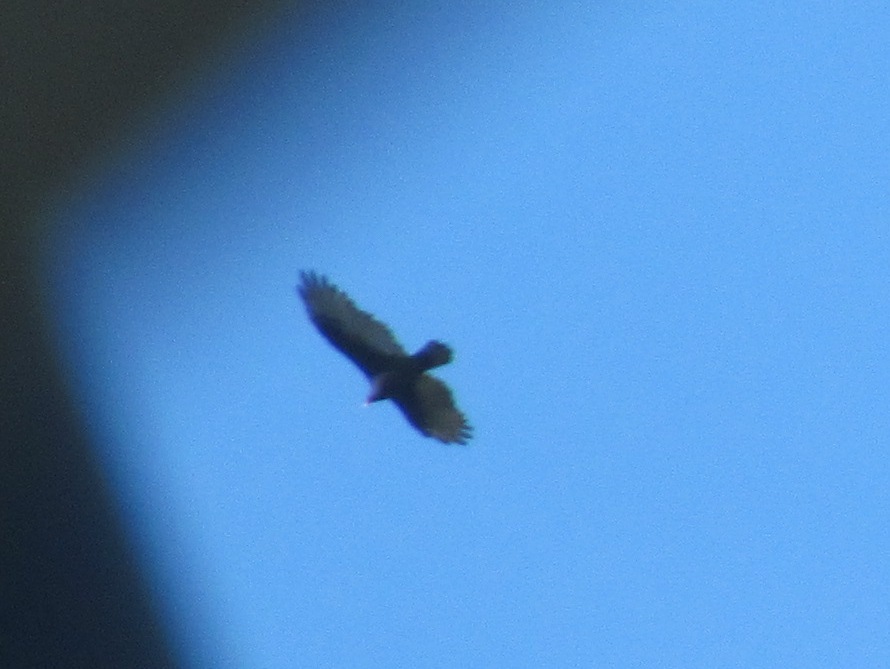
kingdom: Animalia
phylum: Chordata
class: Aves
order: Accipitriformes
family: Cathartidae
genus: Cathartes
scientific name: Cathartes aura
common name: Turkey vulture
